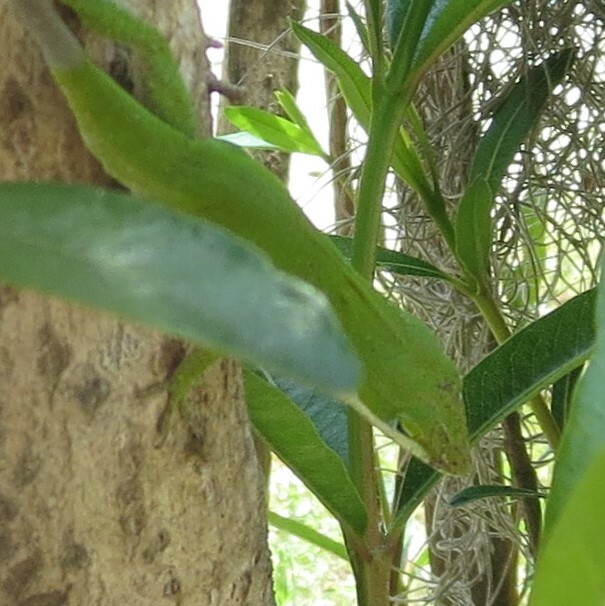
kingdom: Animalia
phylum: Chordata
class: Squamata
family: Dactyloidae
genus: Anolis
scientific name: Anolis carolinensis
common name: Green anole
